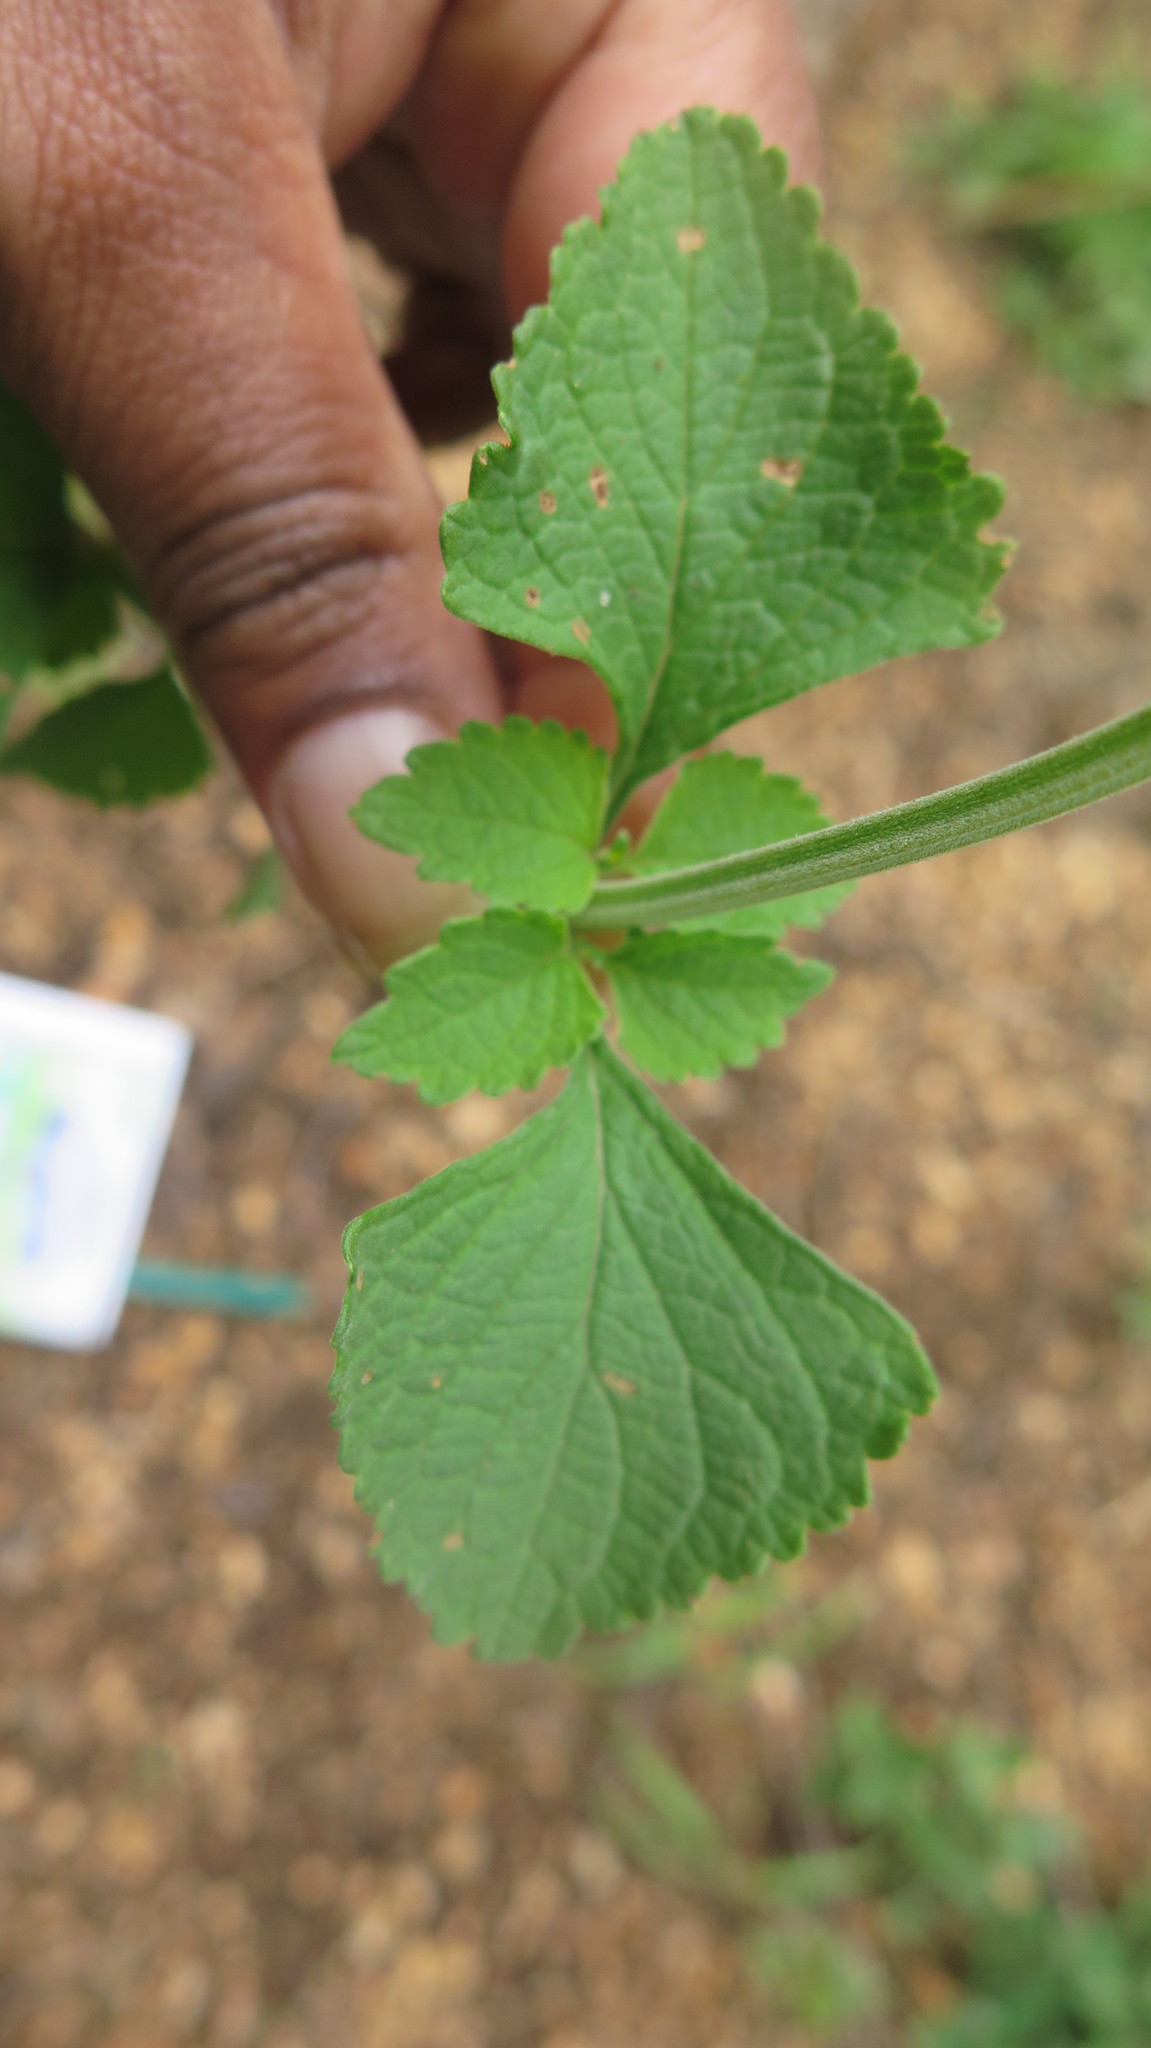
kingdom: Plantae
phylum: Tracheophyta
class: Magnoliopsida
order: Lamiales
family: Acanthaceae
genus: Ruellia
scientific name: Ruellia cordata
